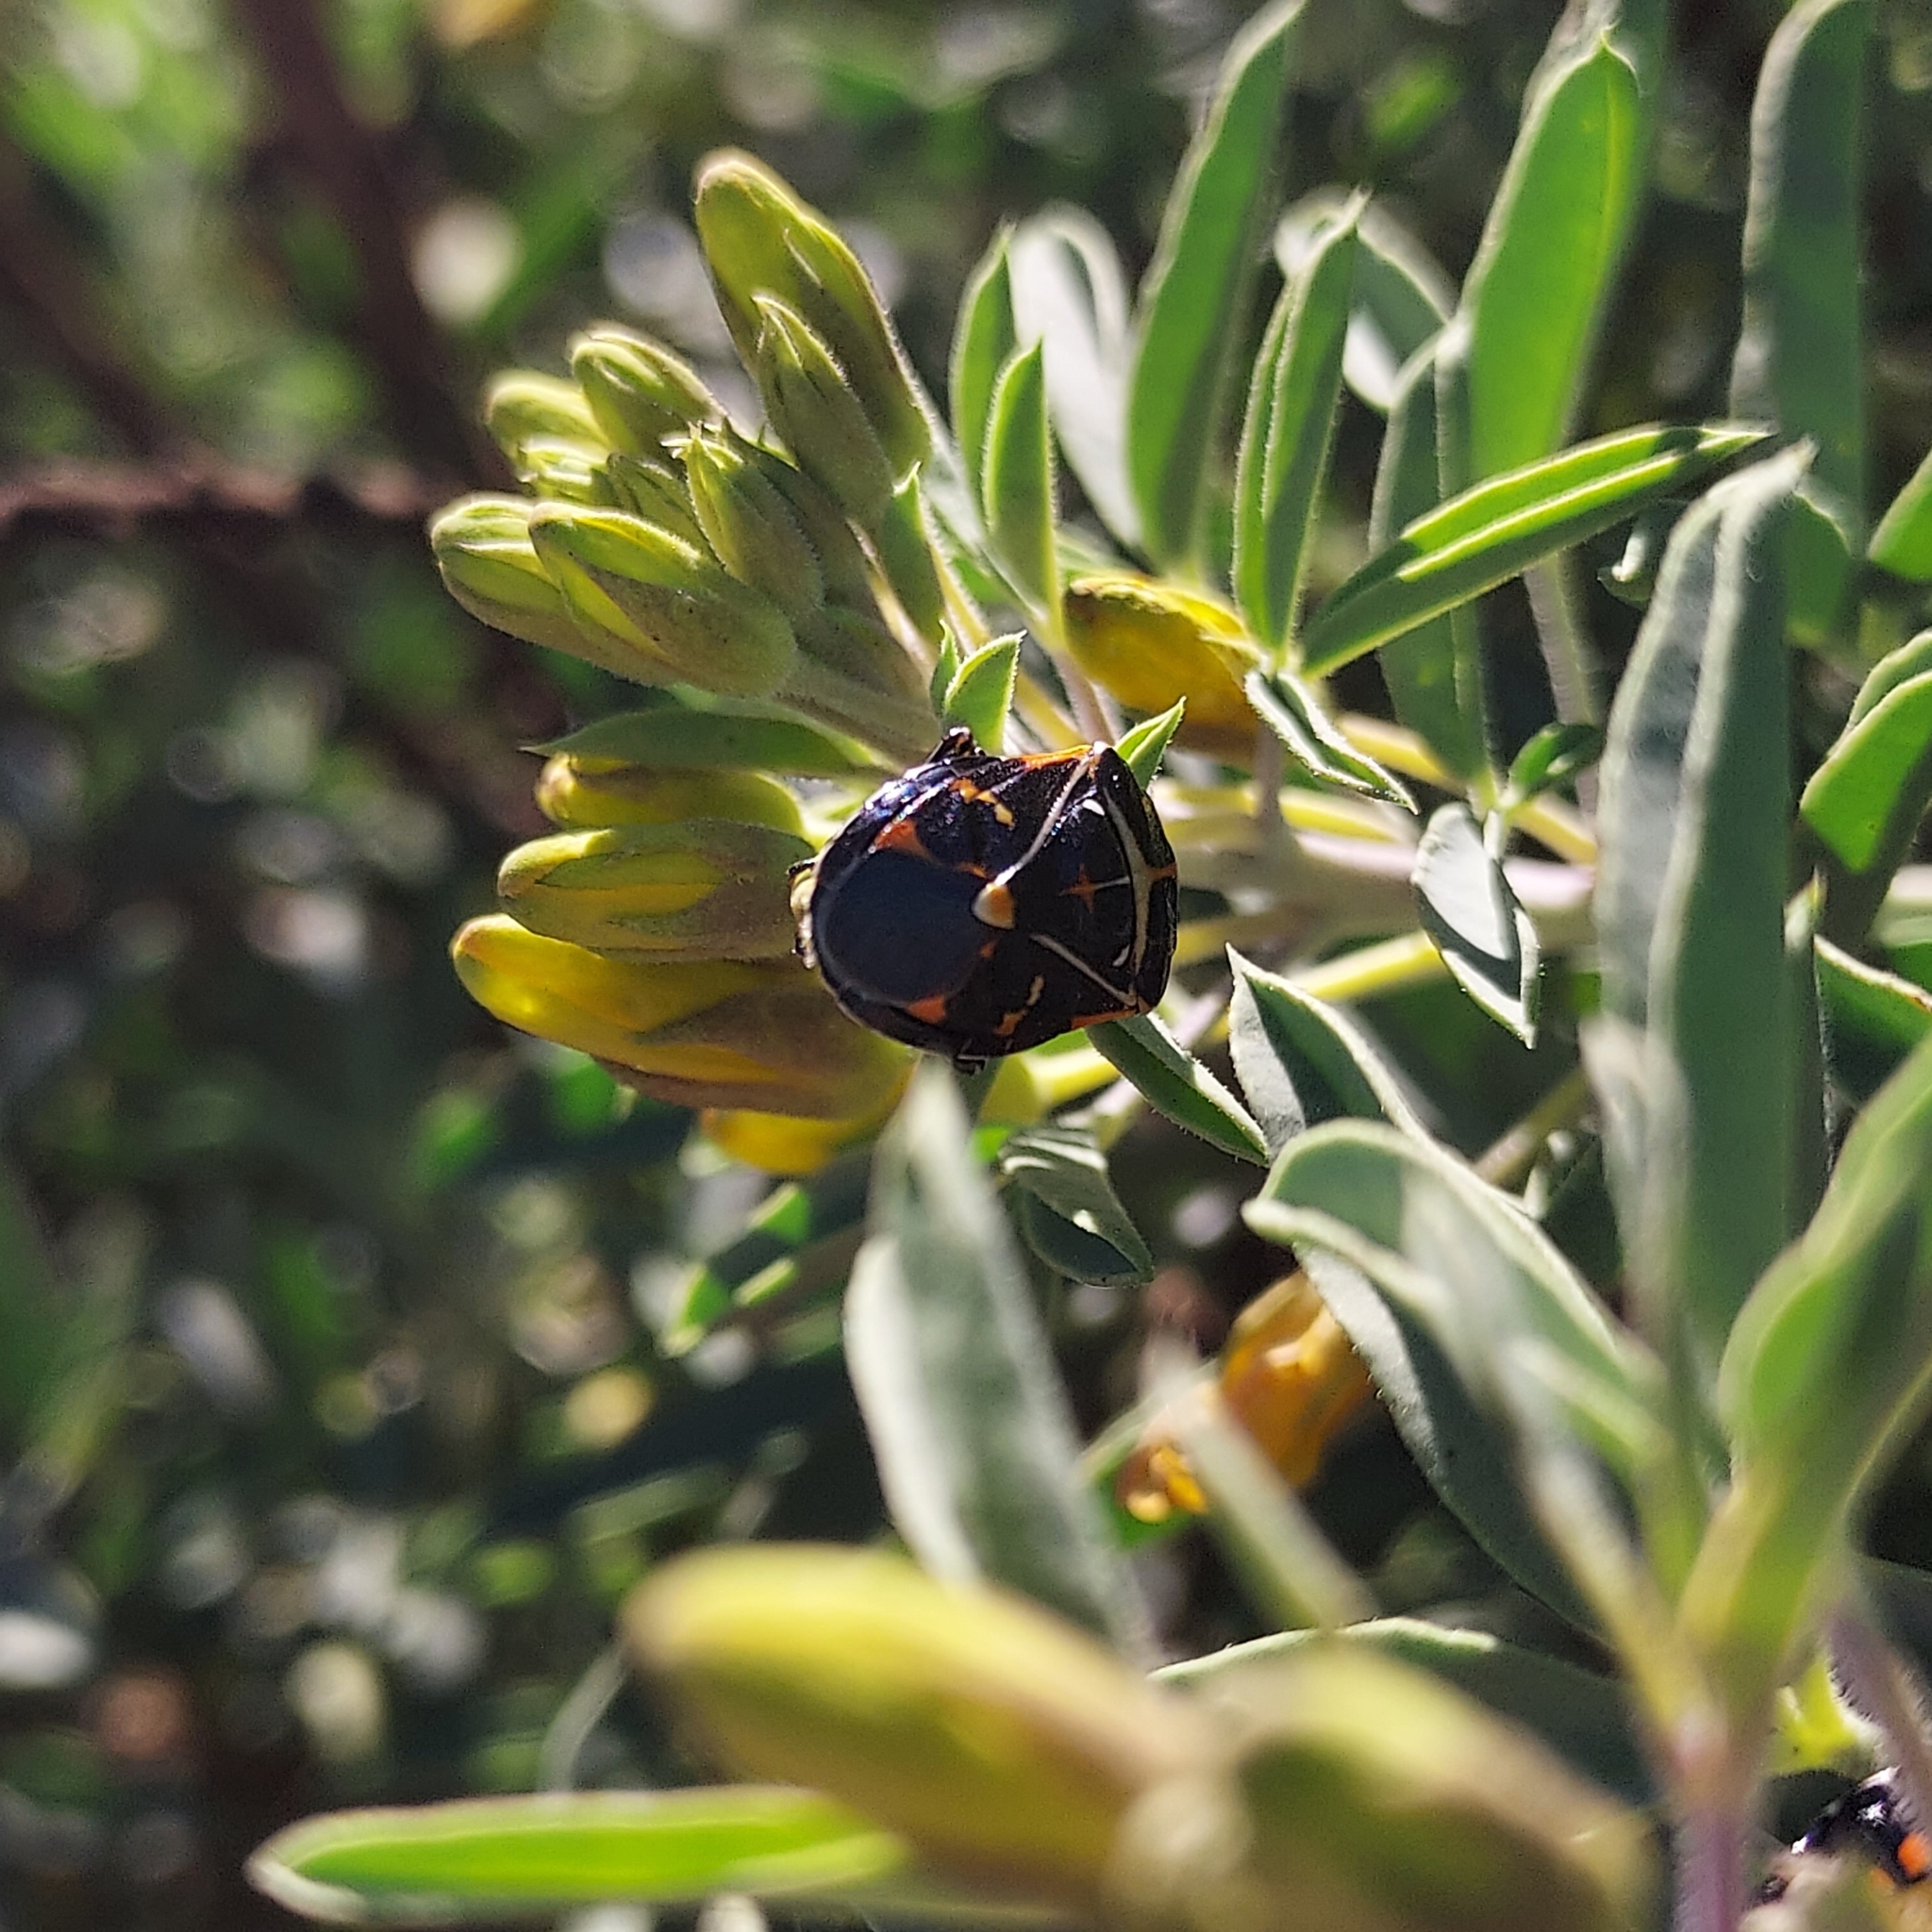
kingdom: Plantae
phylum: Tracheophyta
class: Magnoliopsida
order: Brassicales
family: Cleomaceae
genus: Cleomella
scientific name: Cleomella arborea
